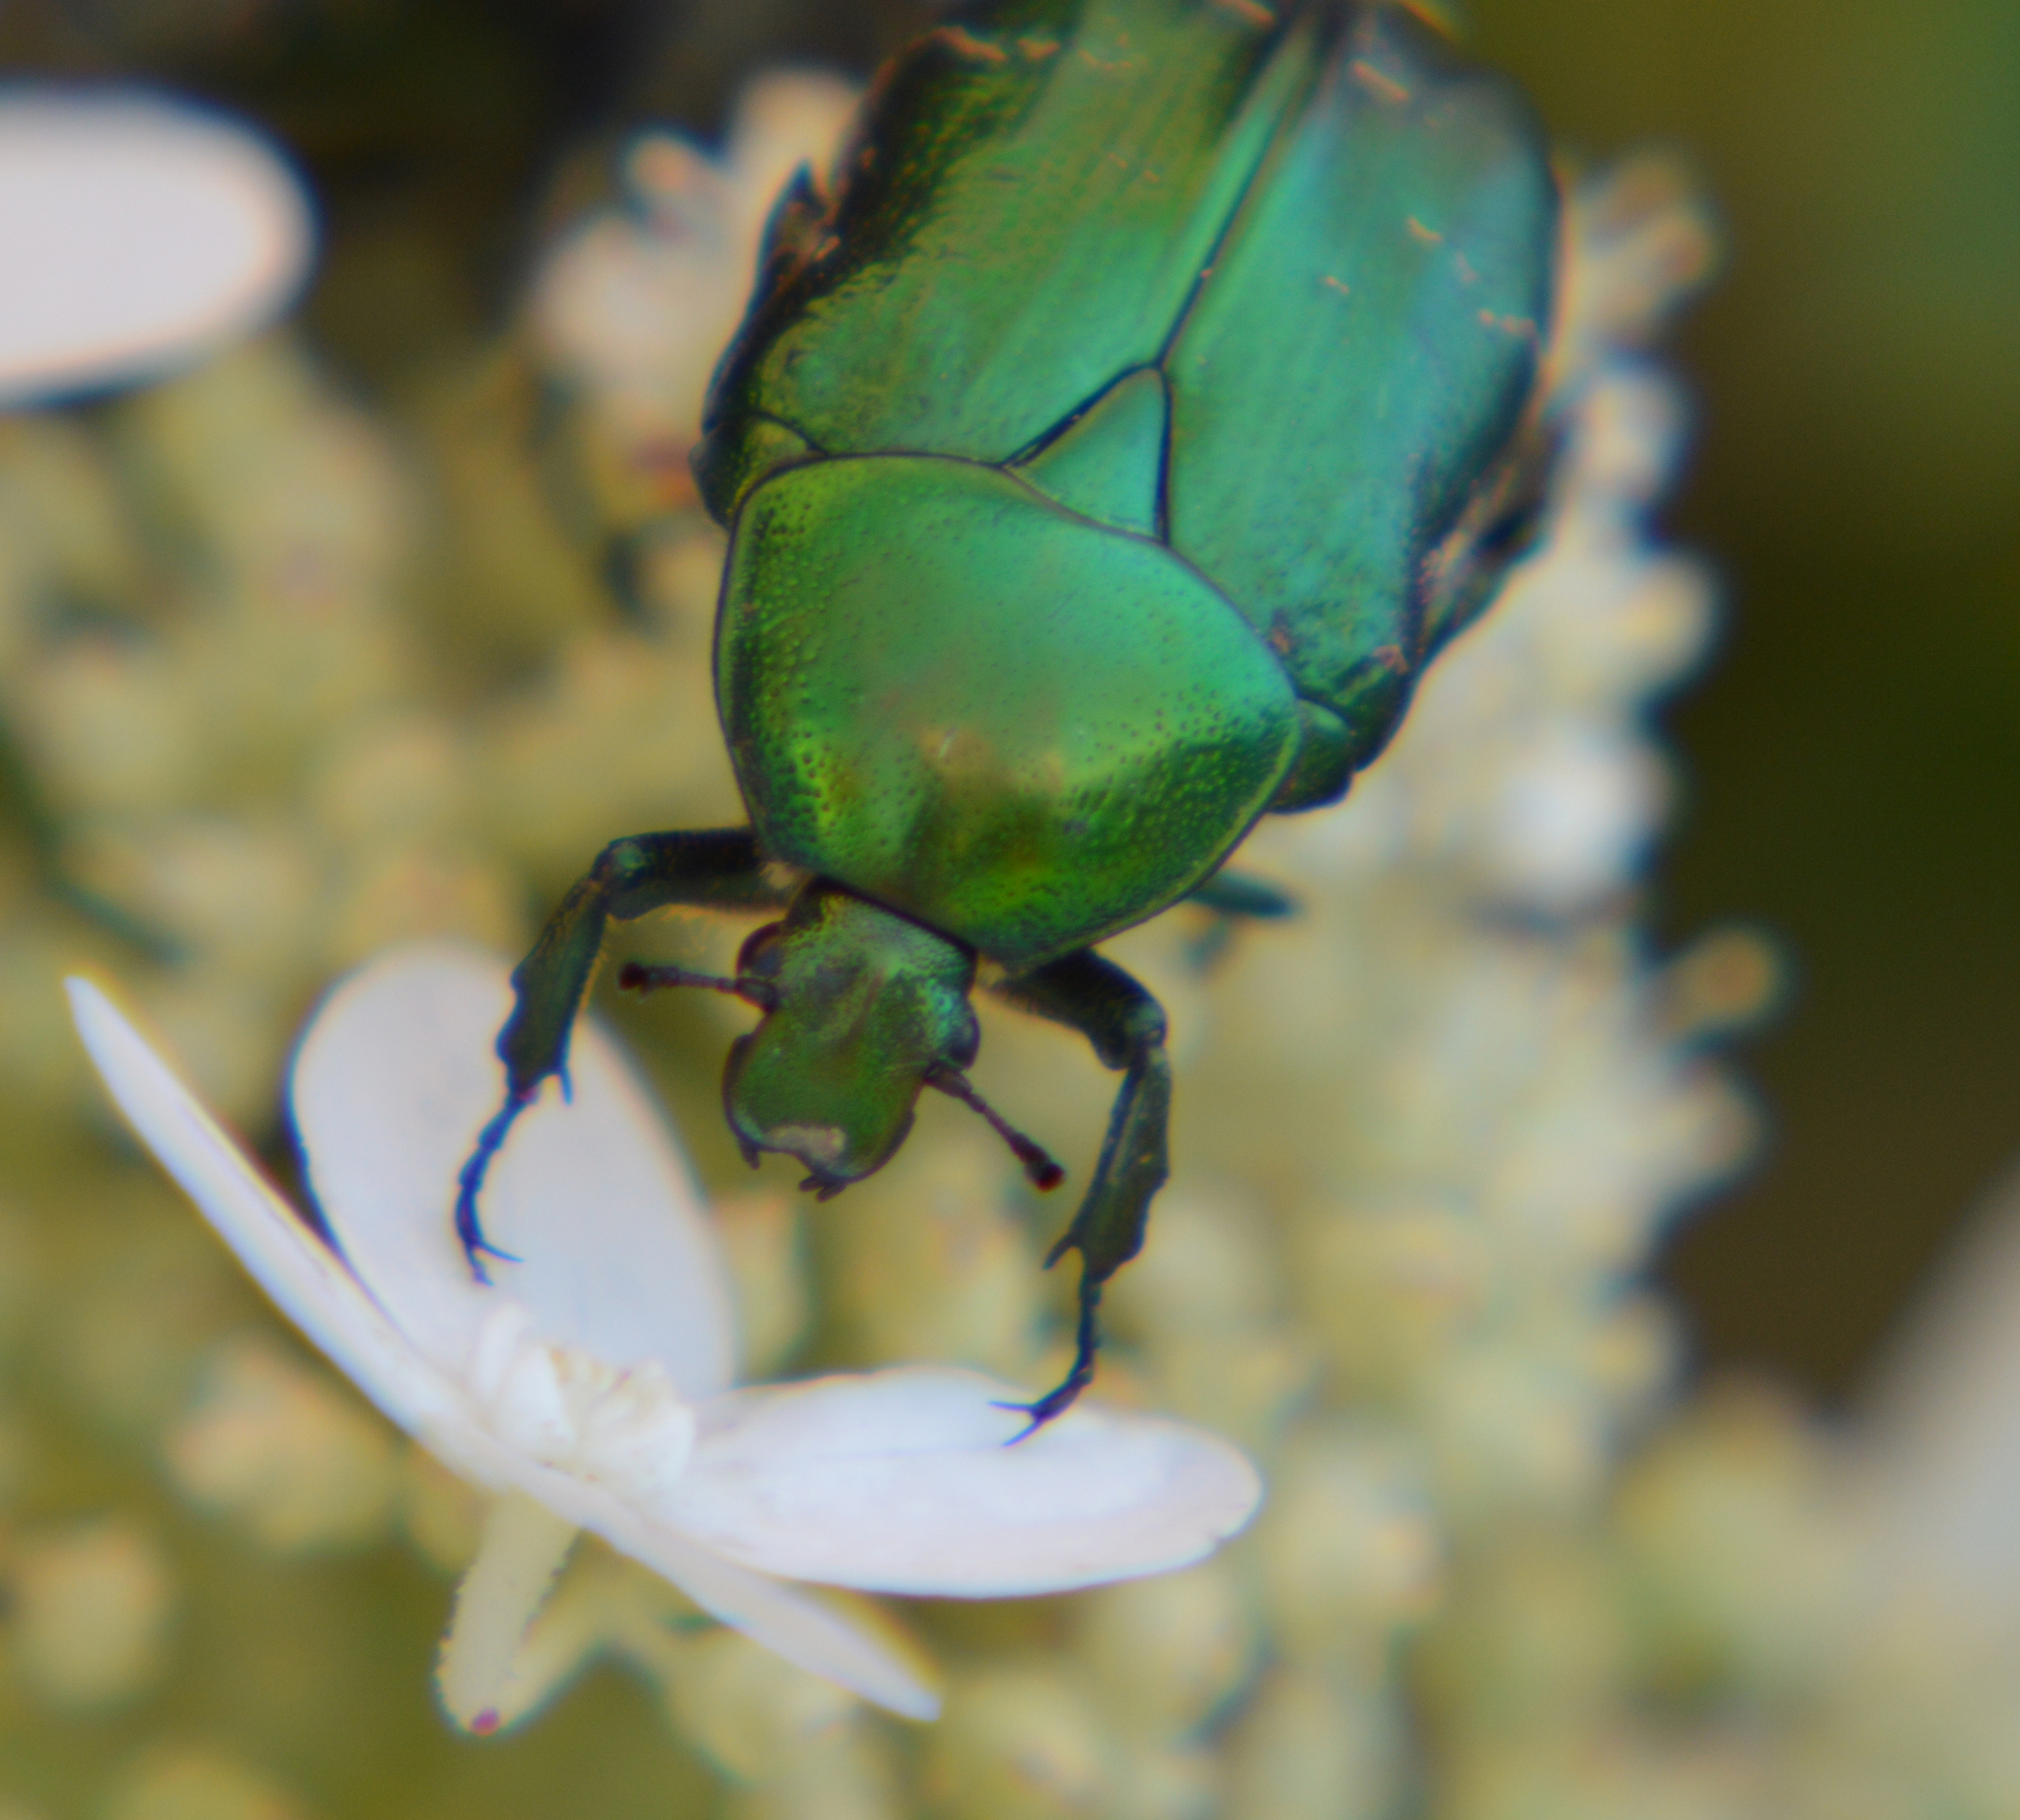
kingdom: Animalia
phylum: Arthropoda
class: Insecta
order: Coleoptera
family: Scarabaeidae
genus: Cetonia
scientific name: Cetonia aurata
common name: Rose chafer
